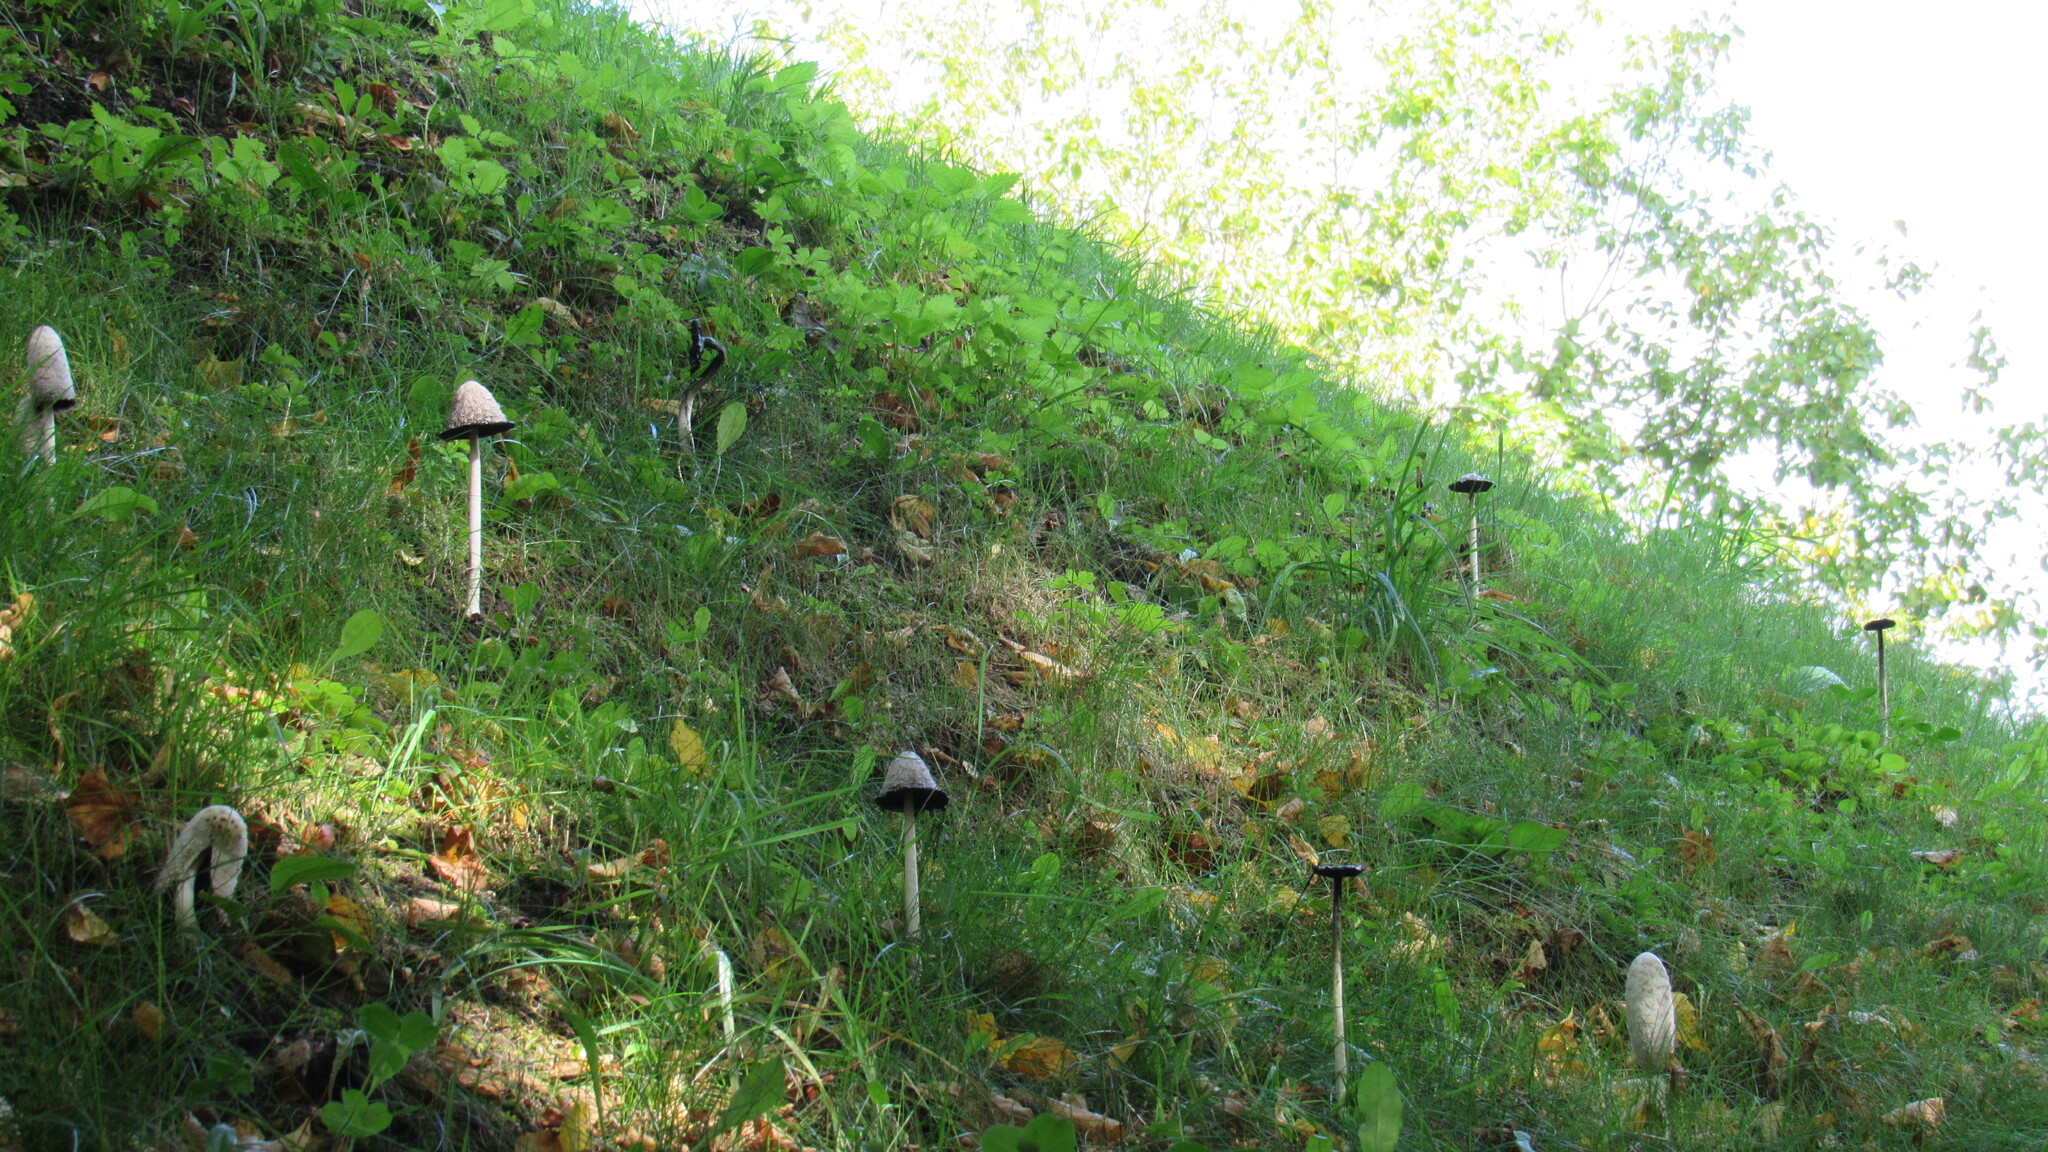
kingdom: Fungi
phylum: Basidiomycota
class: Agaricomycetes
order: Agaricales
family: Agaricaceae
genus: Coprinus
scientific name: Coprinus comatus
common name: Lawyer's wig
